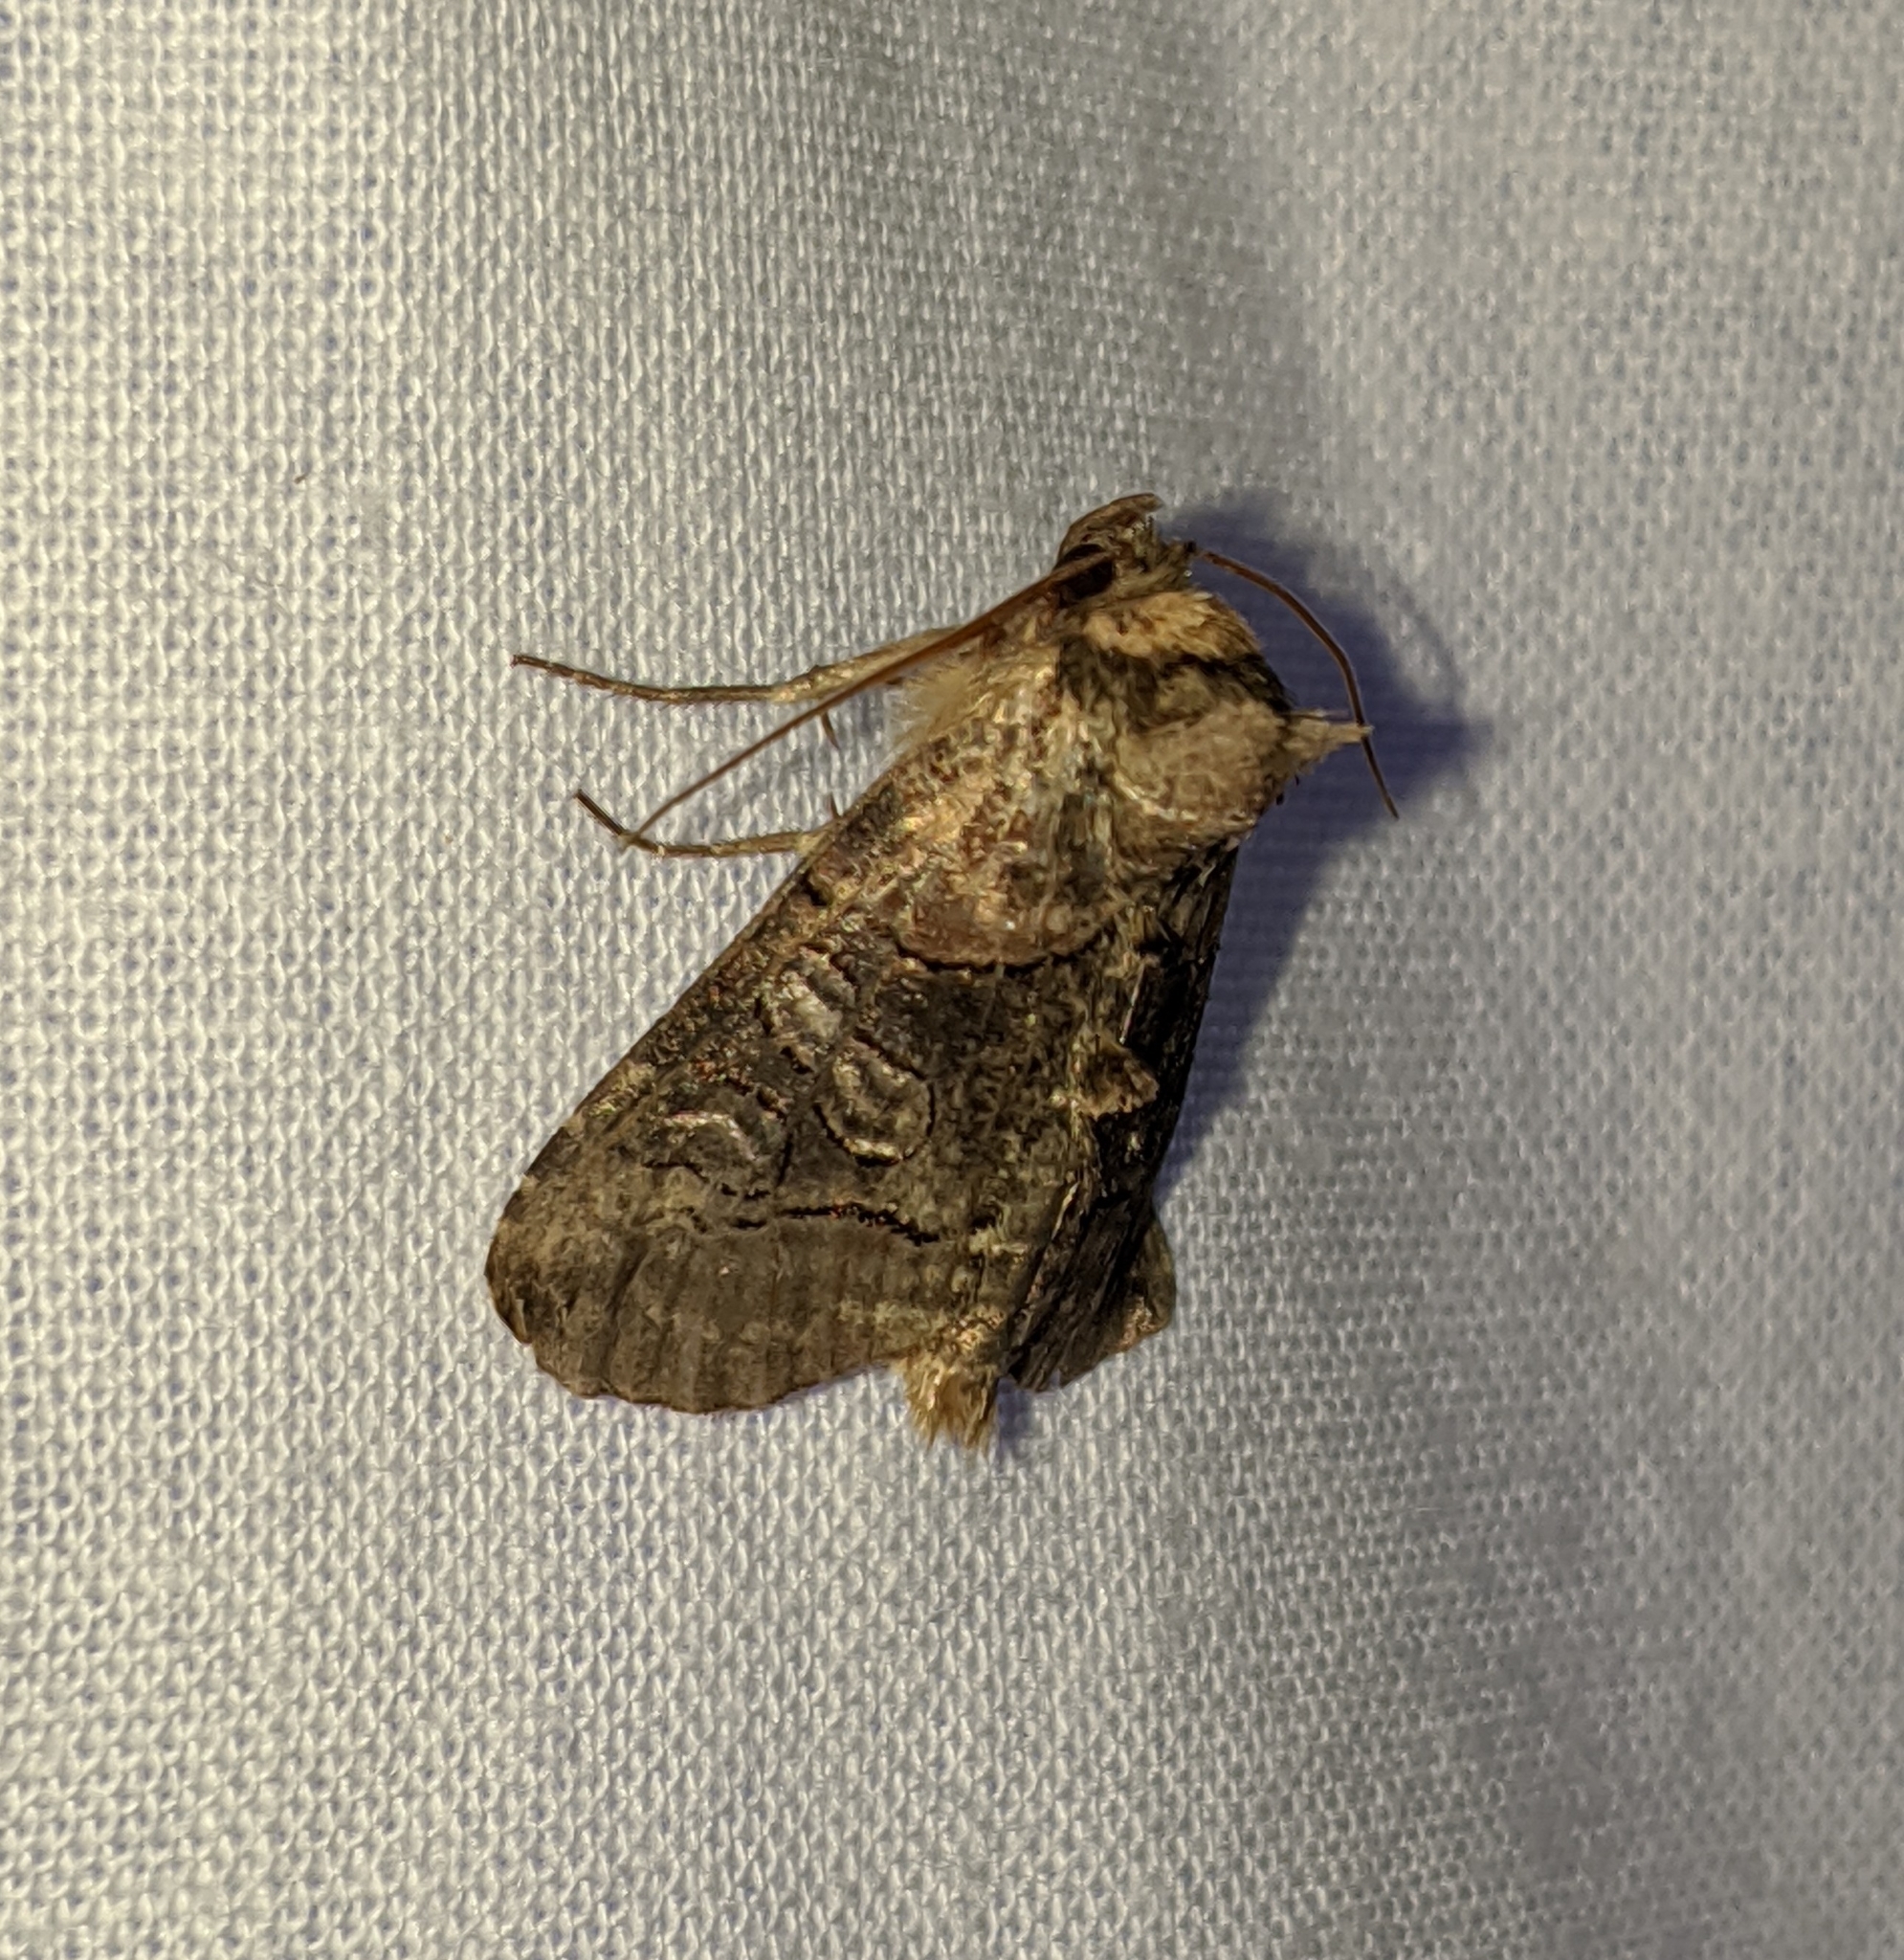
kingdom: Animalia
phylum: Arthropoda
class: Insecta
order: Lepidoptera
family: Noctuidae
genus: Abrostola
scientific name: Abrostola urentis
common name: Spectacled nettle moth
